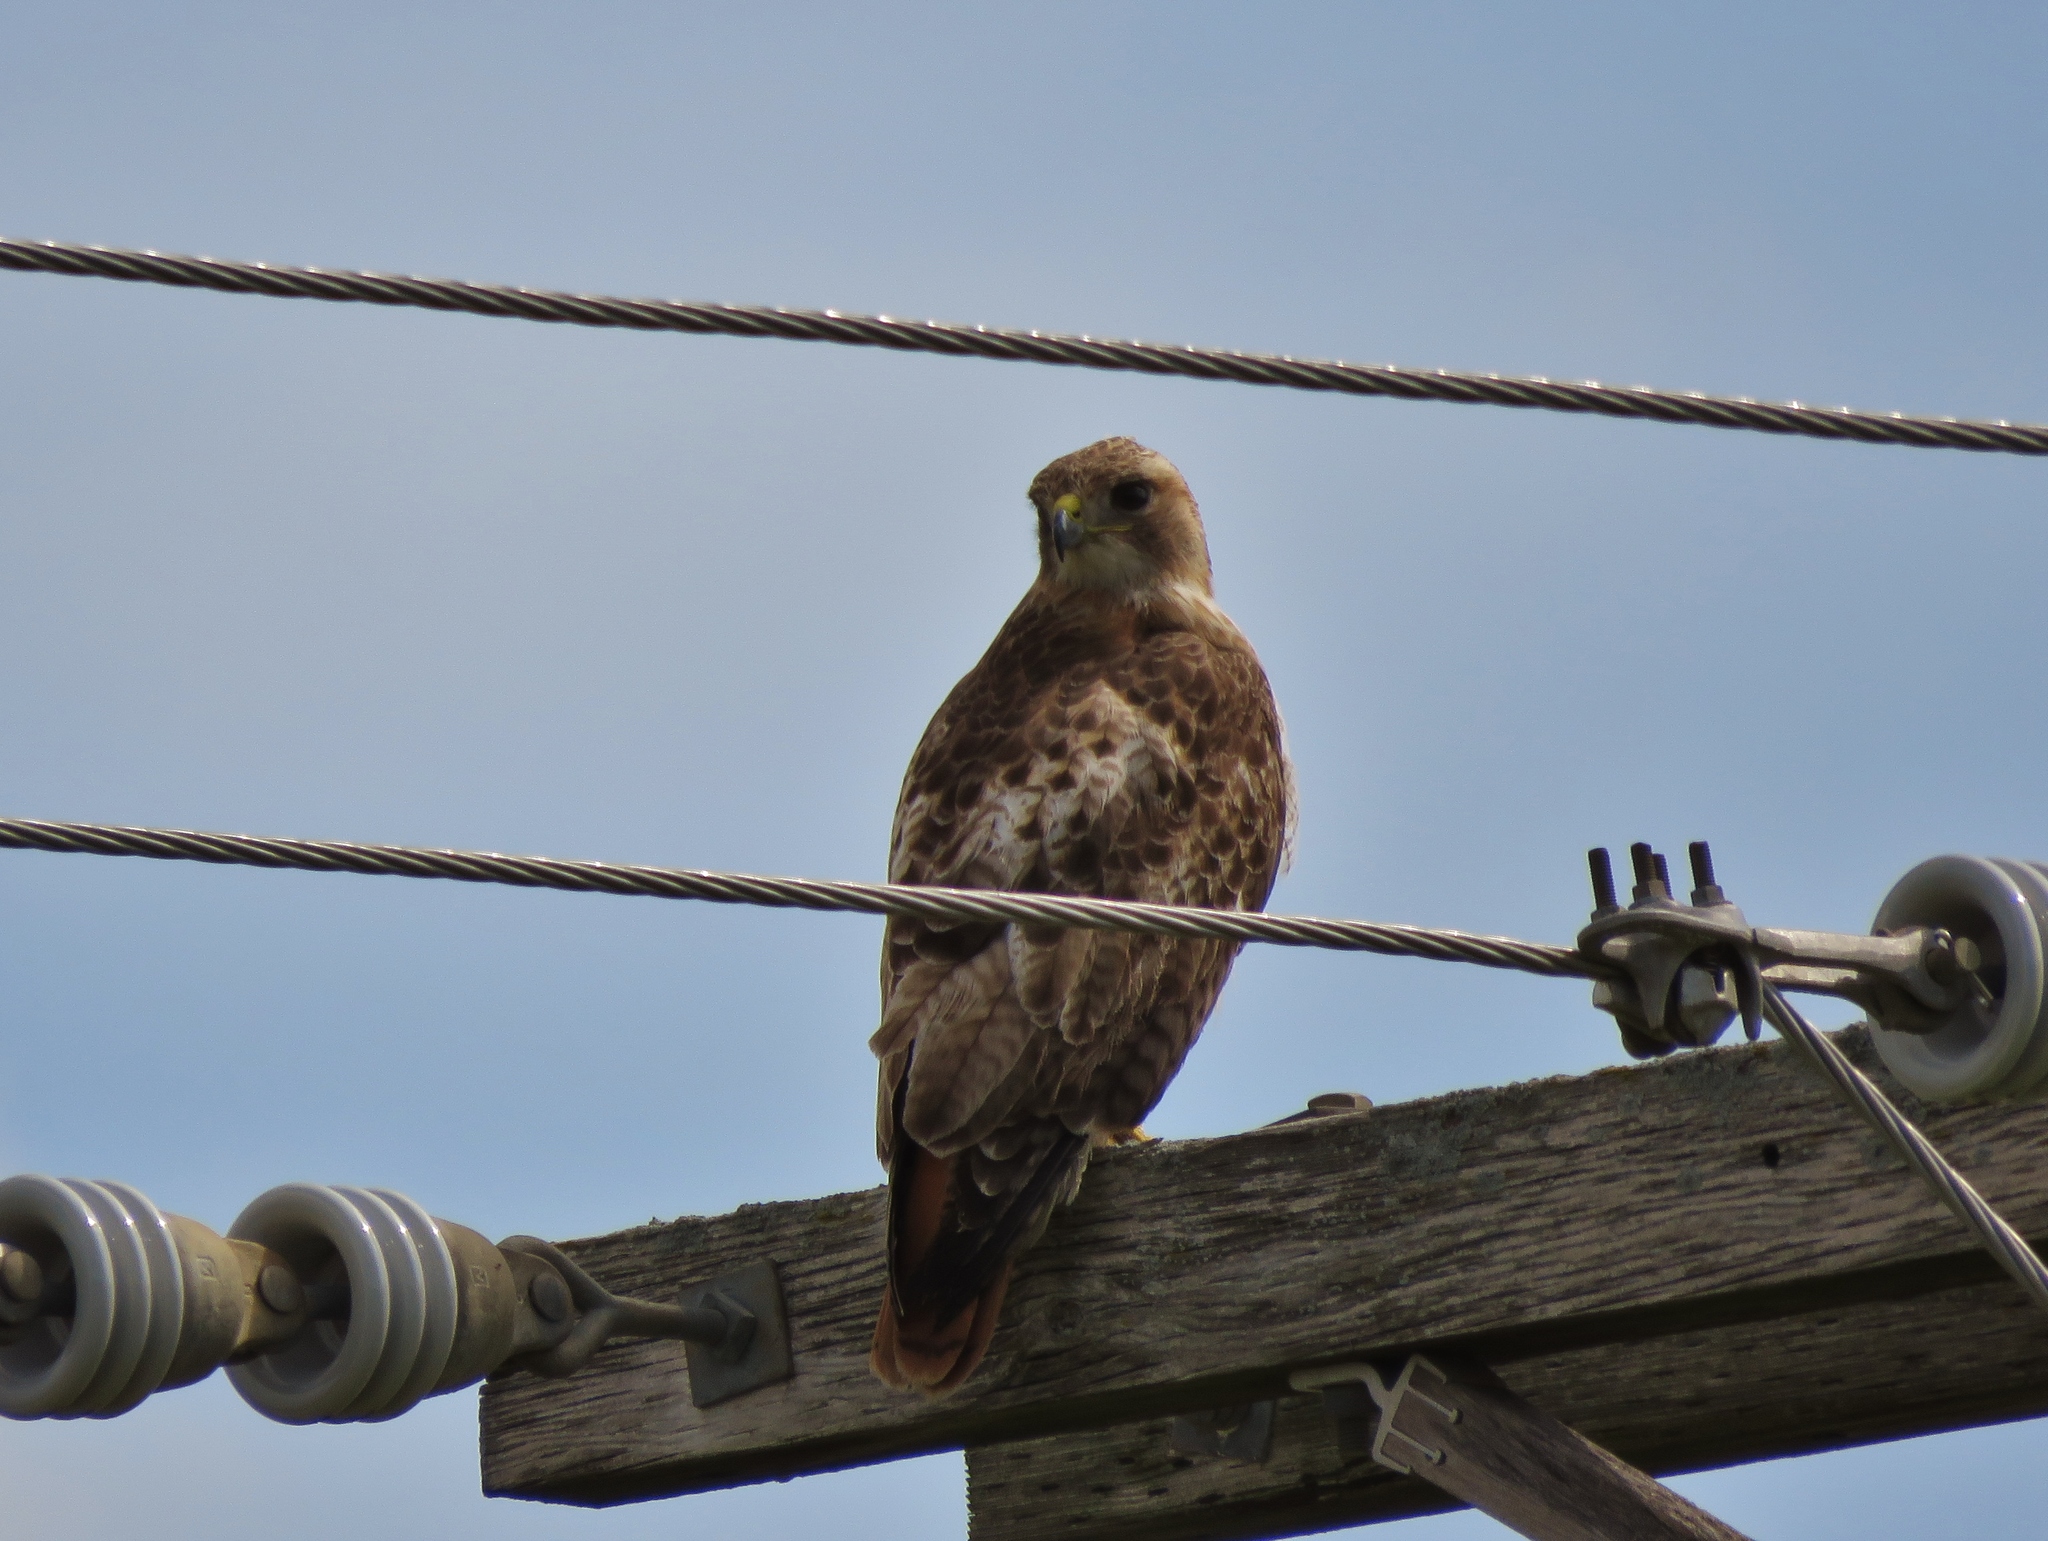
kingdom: Animalia
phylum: Chordata
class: Aves
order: Accipitriformes
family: Accipitridae
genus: Buteo
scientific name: Buteo jamaicensis
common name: Red-tailed hawk
